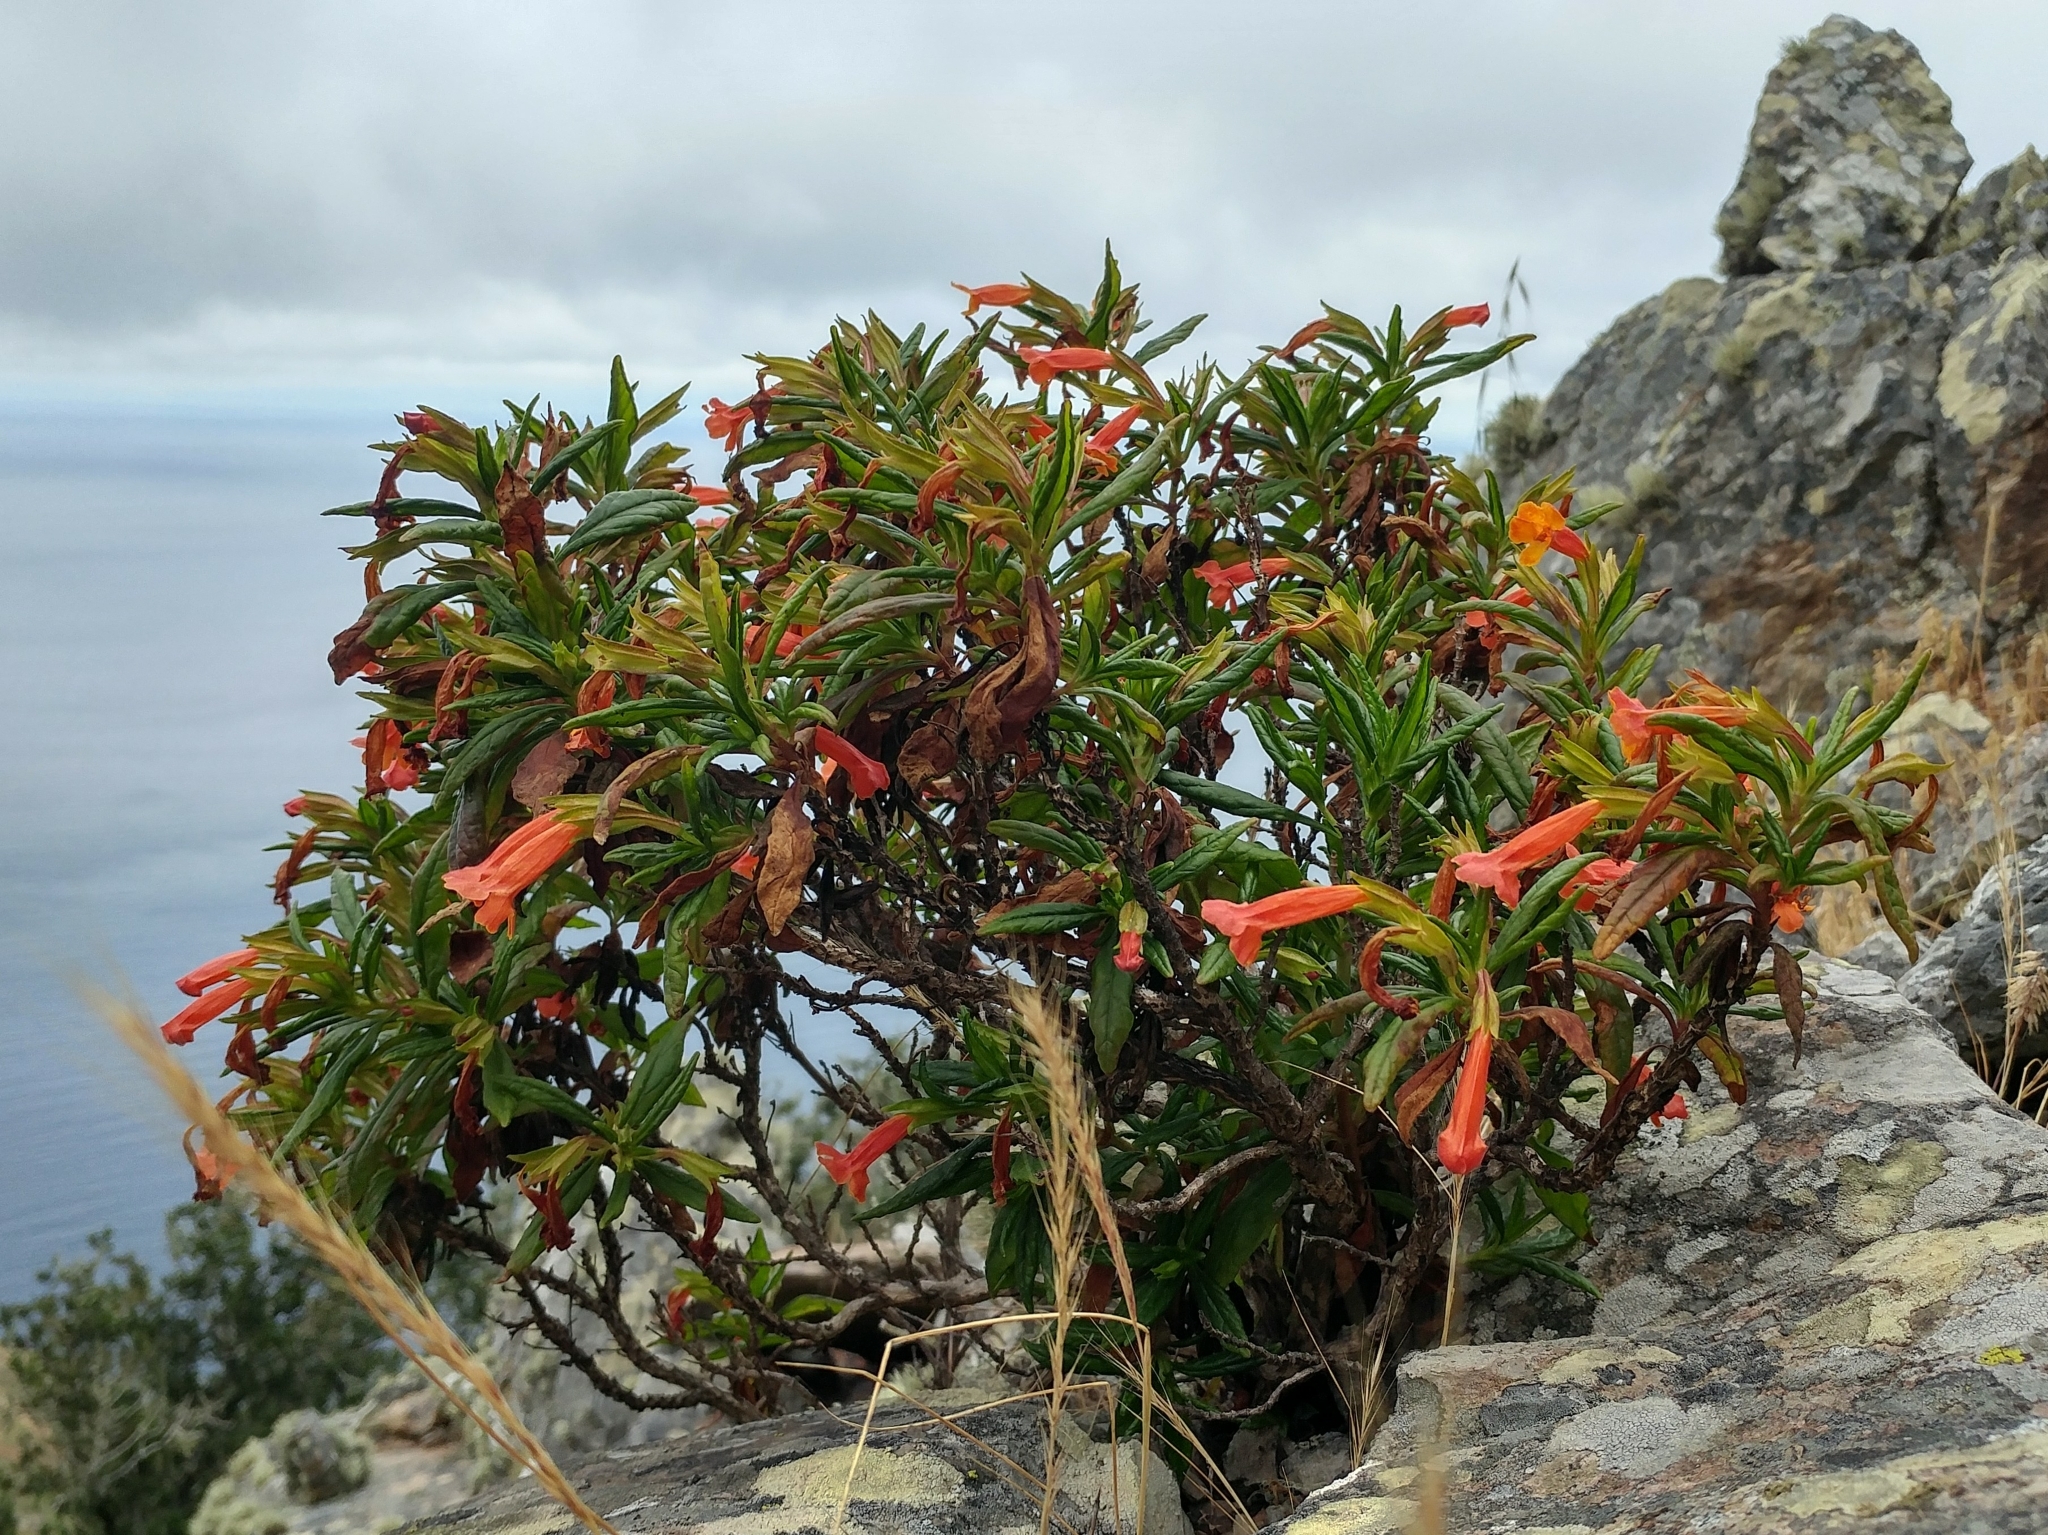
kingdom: Plantae
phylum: Tracheophyta
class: Magnoliopsida
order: Lamiales
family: Phrymaceae
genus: Diplacus
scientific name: Diplacus parviflorus
